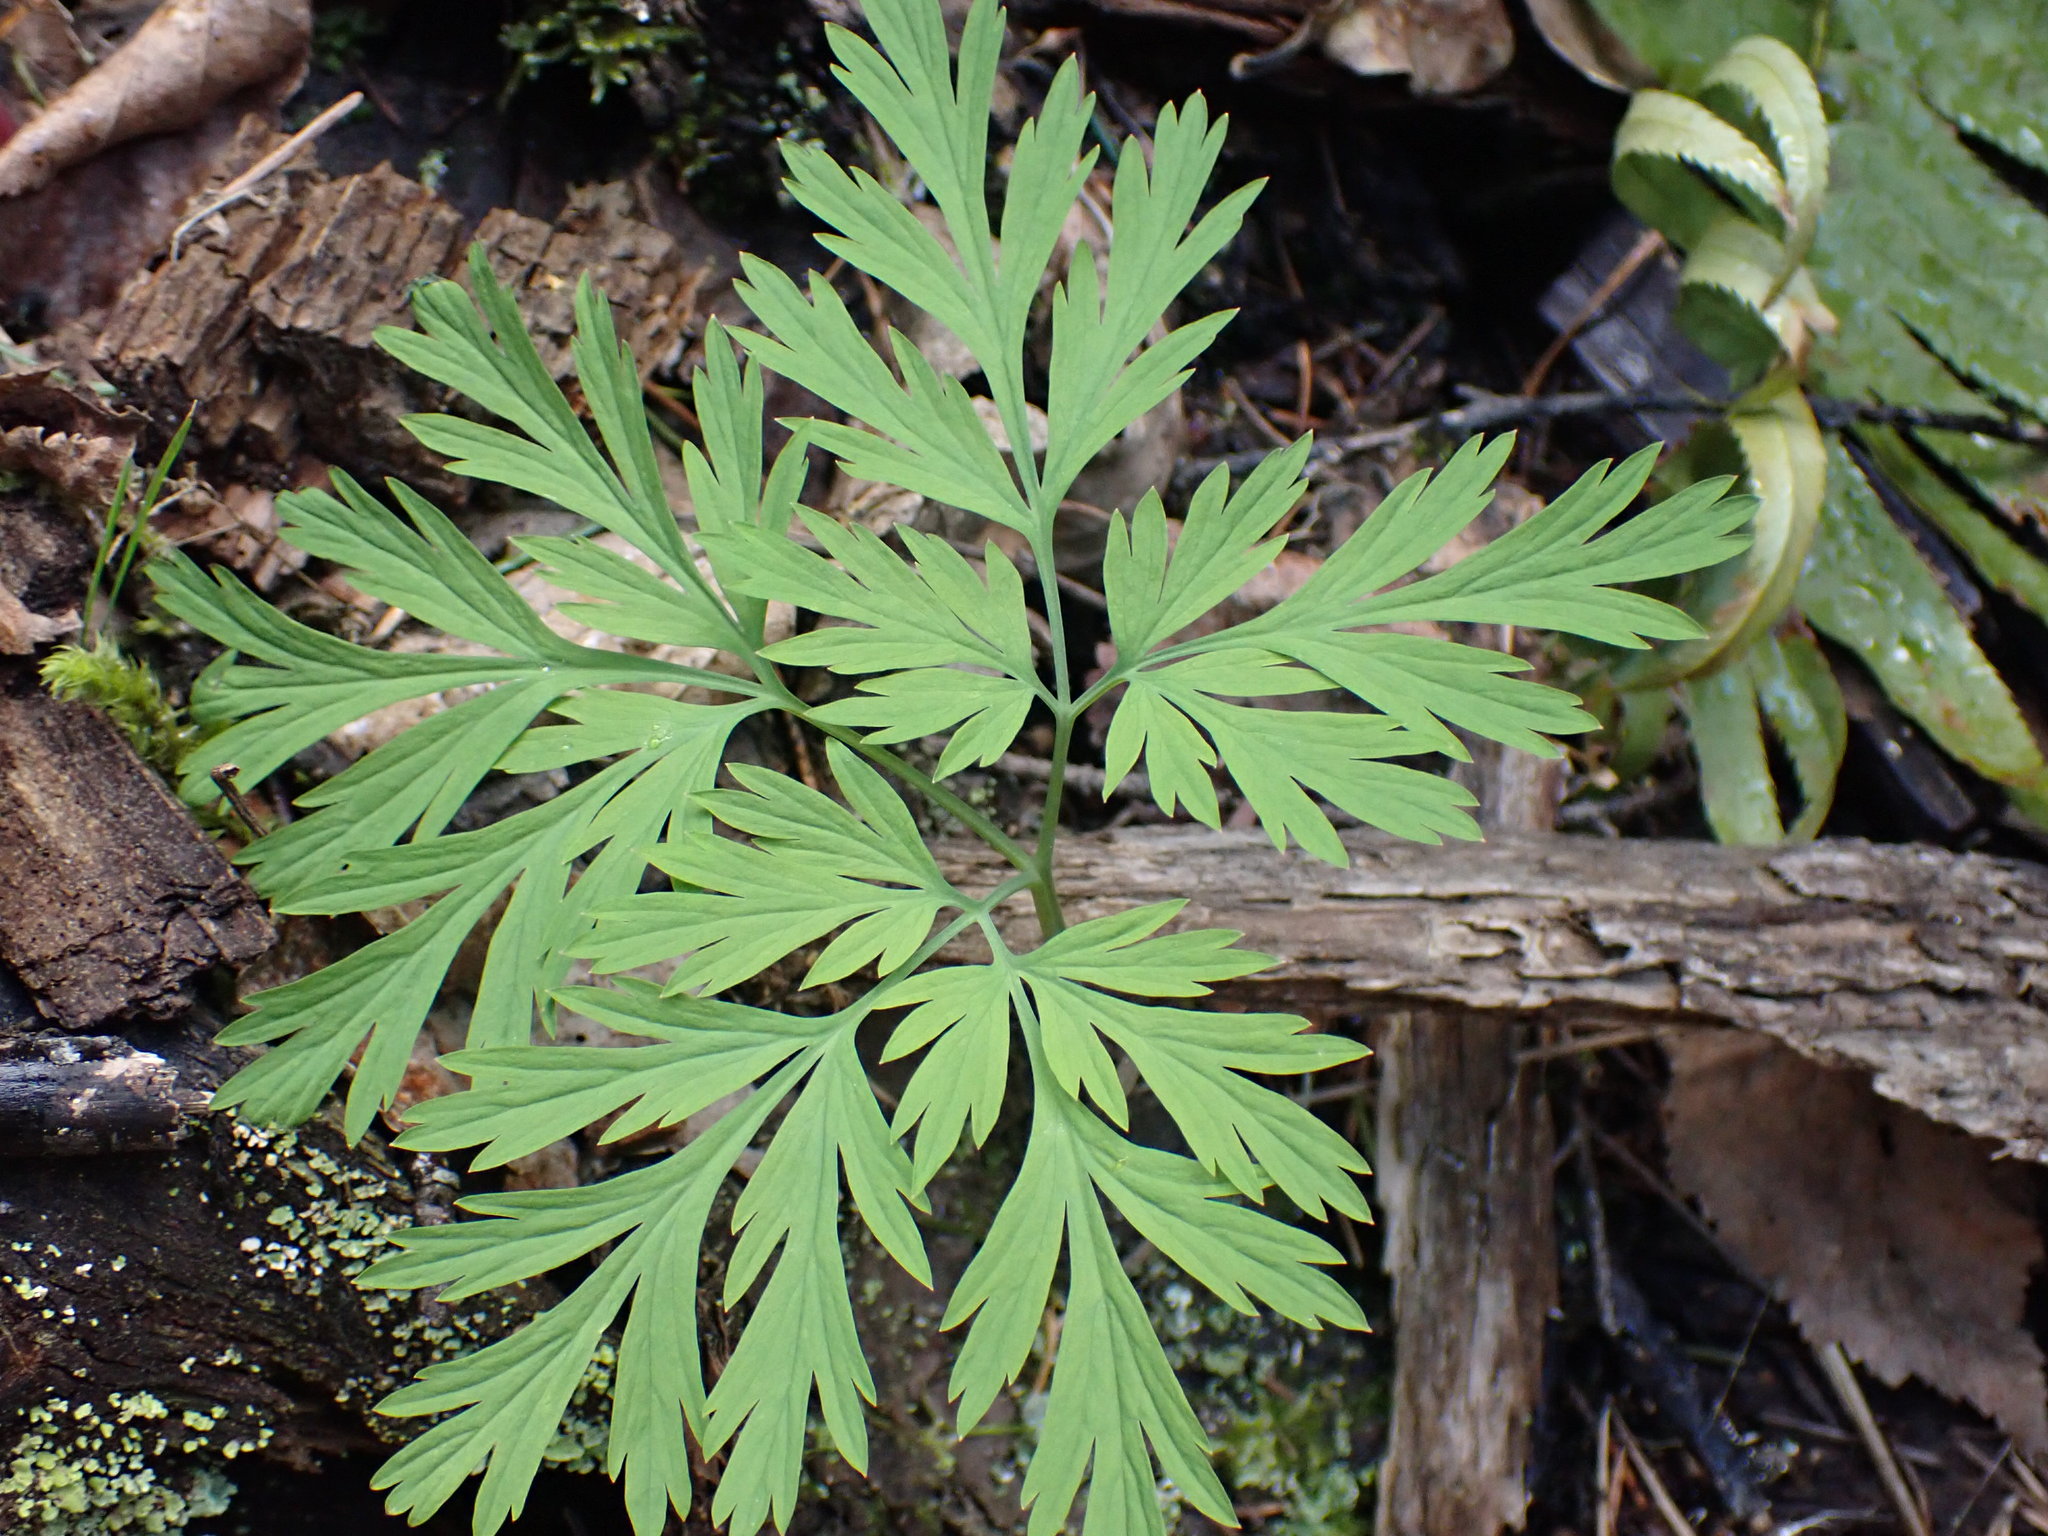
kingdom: Plantae
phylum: Tracheophyta
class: Magnoliopsida
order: Ranunculales
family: Papaveraceae
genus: Dicentra
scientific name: Dicentra formosa
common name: Bleeding-heart
